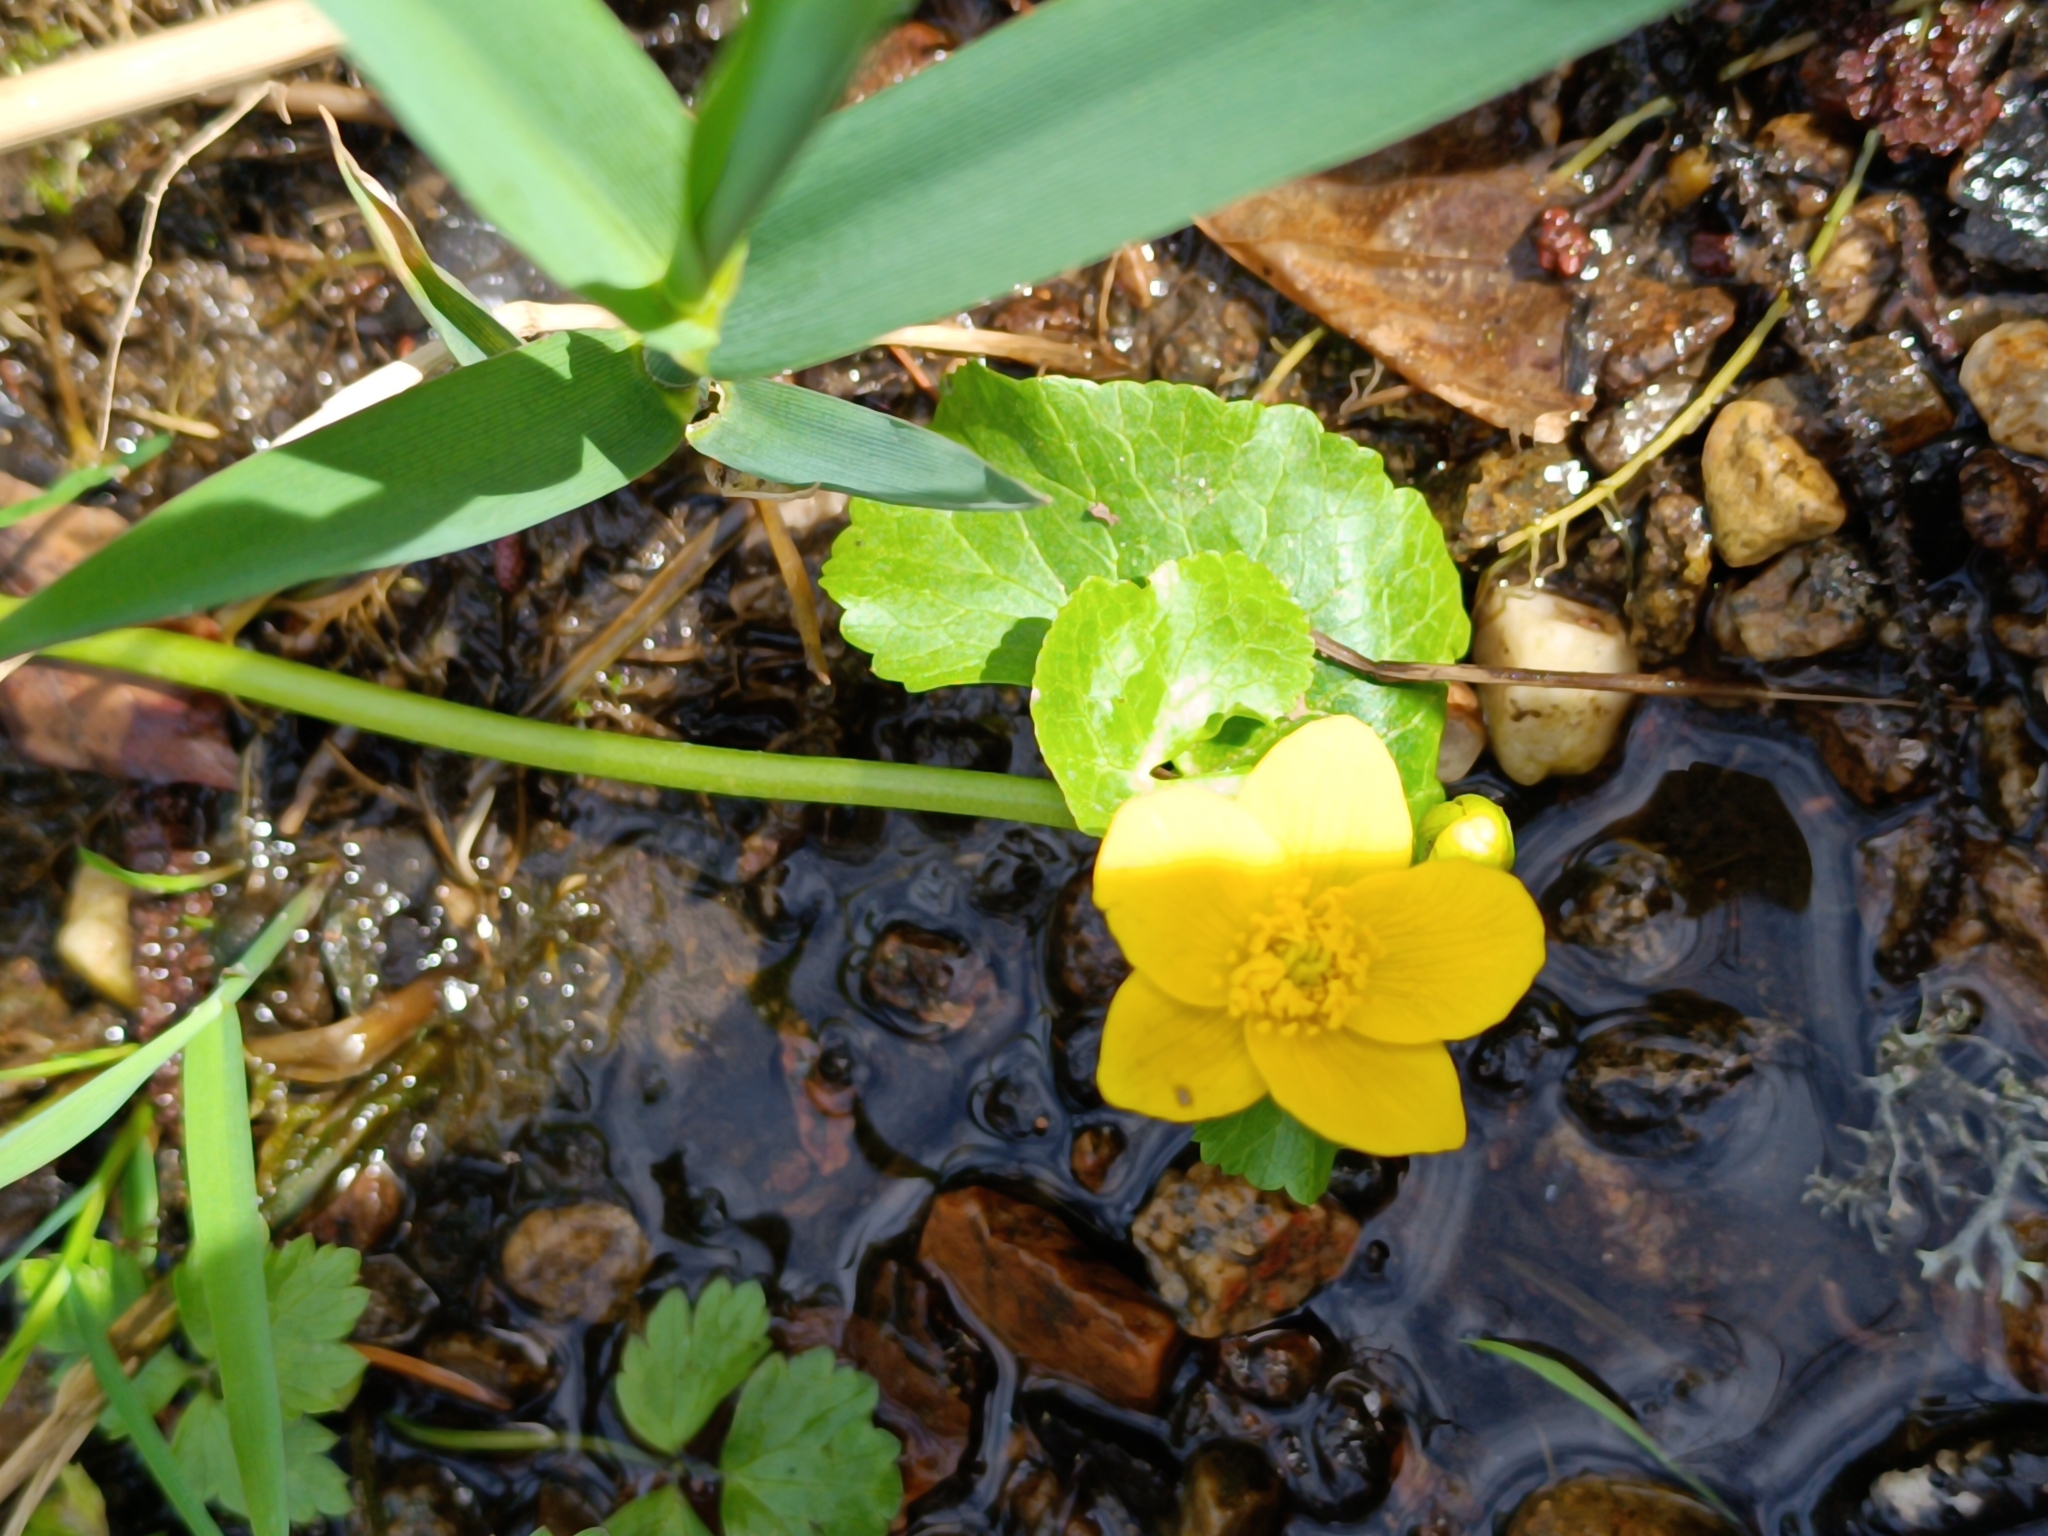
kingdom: Plantae
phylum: Tracheophyta
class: Magnoliopsida
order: Ranunculales
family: Ranunculaceae
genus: Caltha
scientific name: Caltha palustris
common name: Marsh marigold
